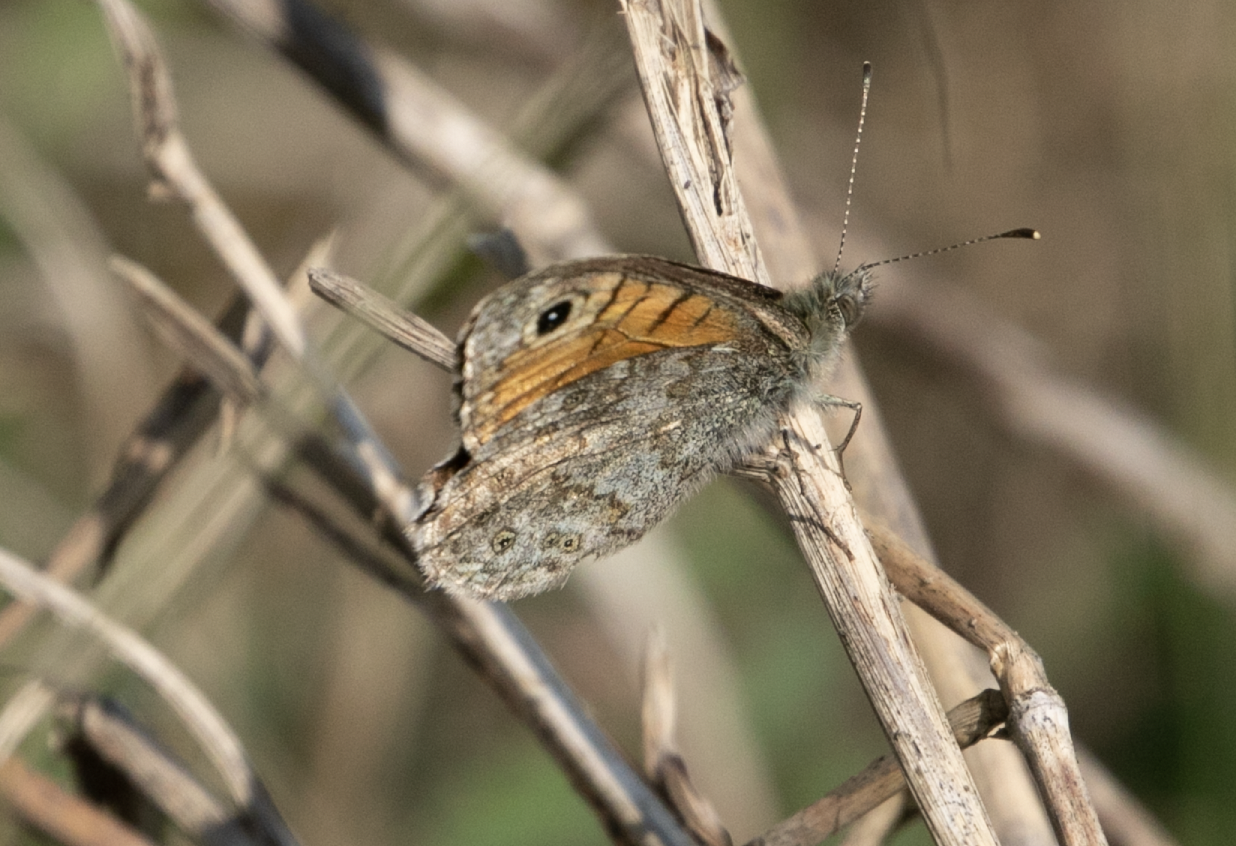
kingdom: Animalia
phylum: Arthropoda
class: Insecta
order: Lepidoptera
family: Nymphalidae
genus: Pararge
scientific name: Pararge Lasiommata megera
